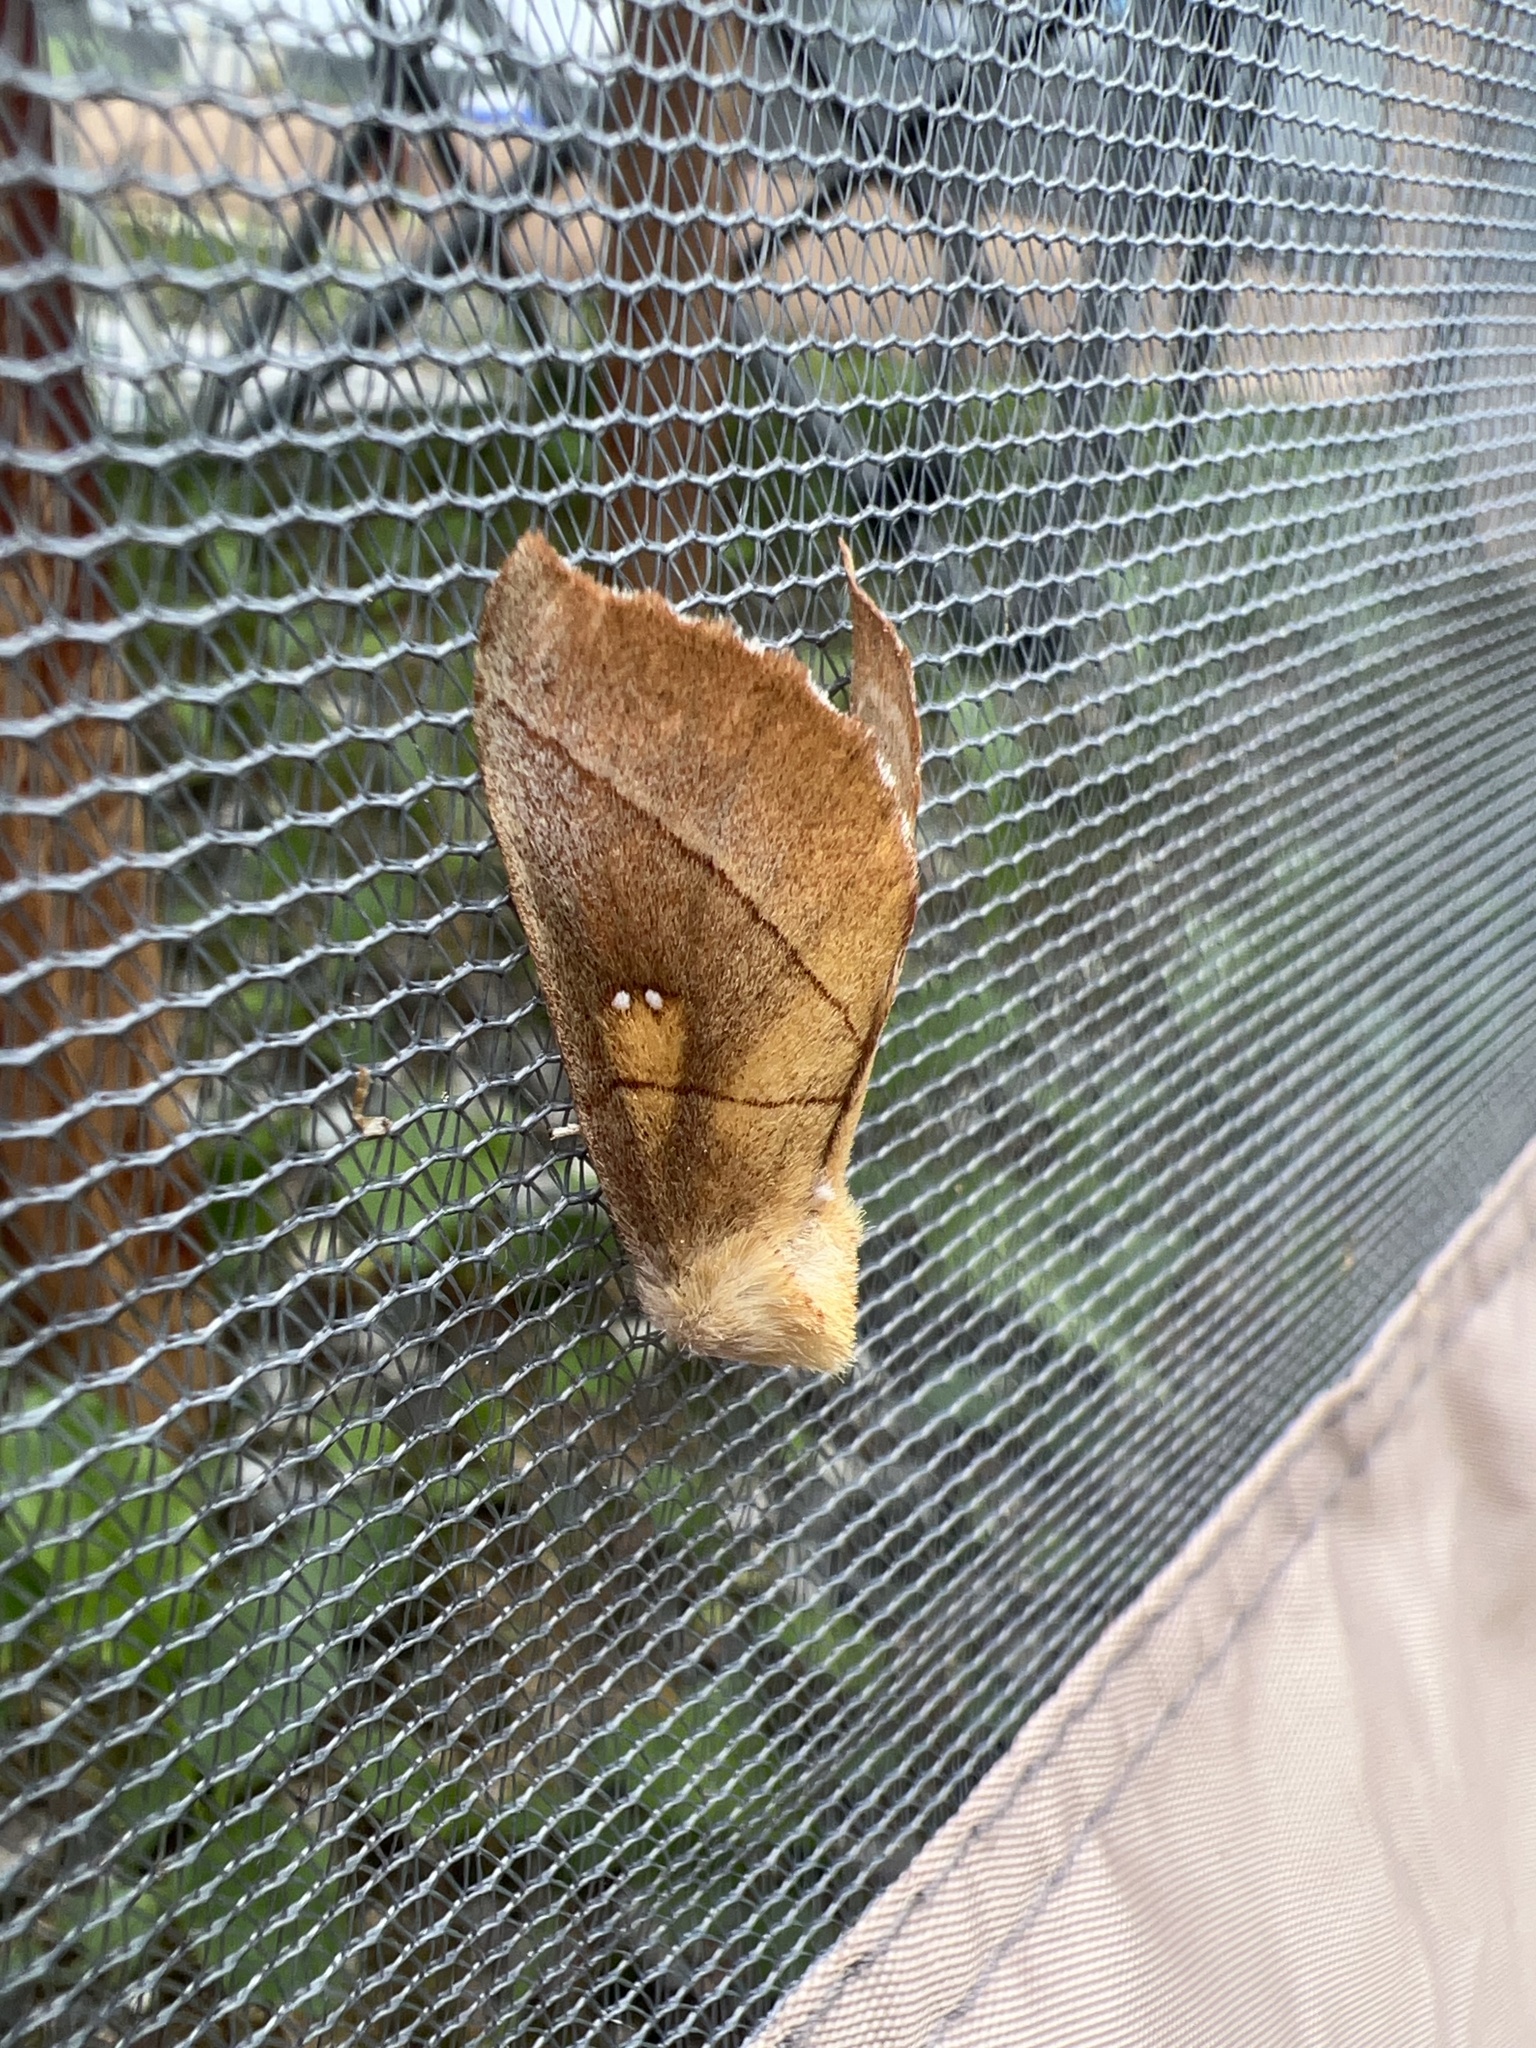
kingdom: Animalia
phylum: Arthropoda
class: Insecta
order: Lepidoptera
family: Notodontidae
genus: Nadata
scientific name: Nadata gibbosa
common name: White-dotted prominent
